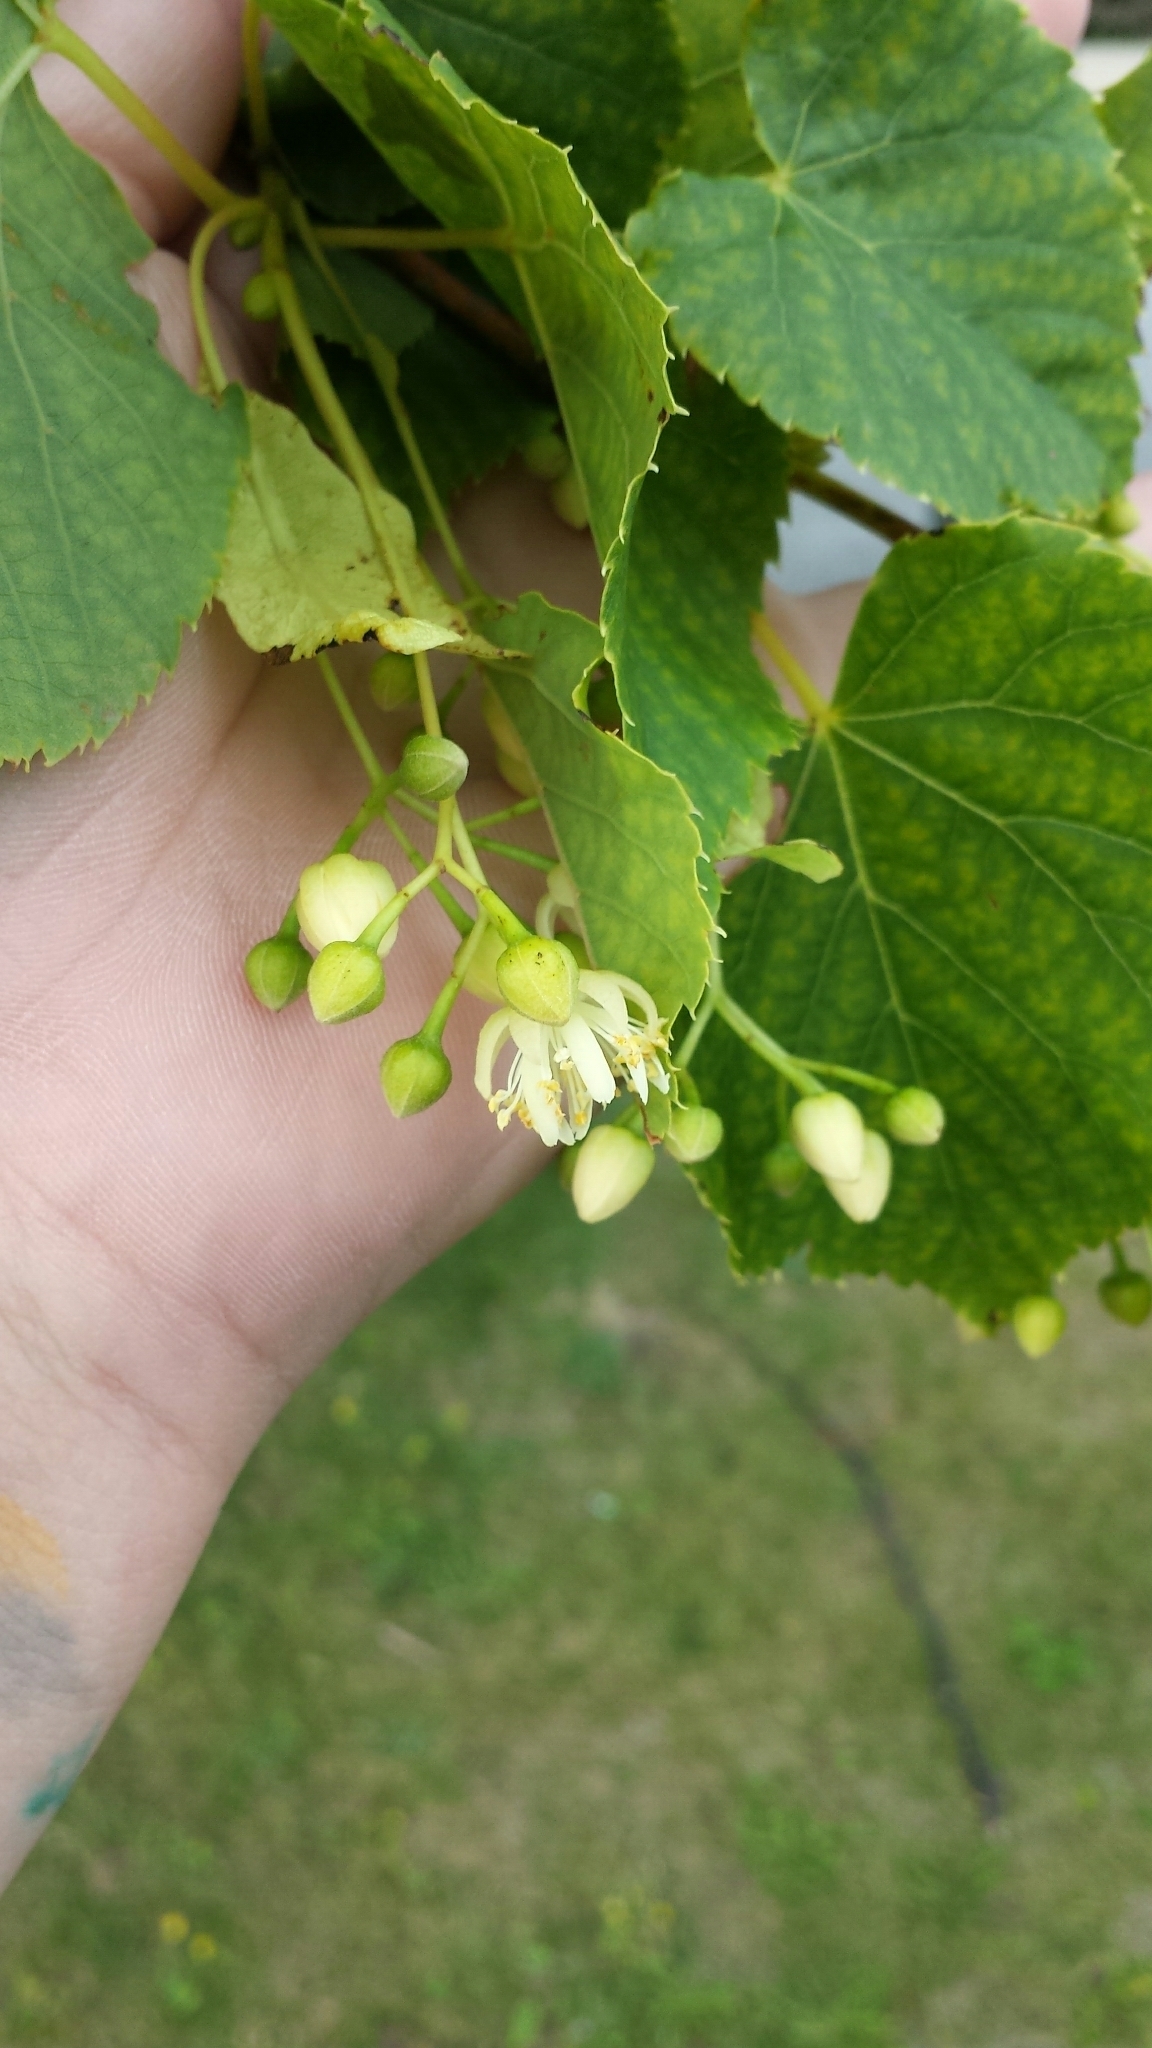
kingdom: Plantae
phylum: Tracheophyta
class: Magnoliopsida
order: Malvales
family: Malvaceae
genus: Tilia
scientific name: Tilia cordata
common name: Small-leaved lime
